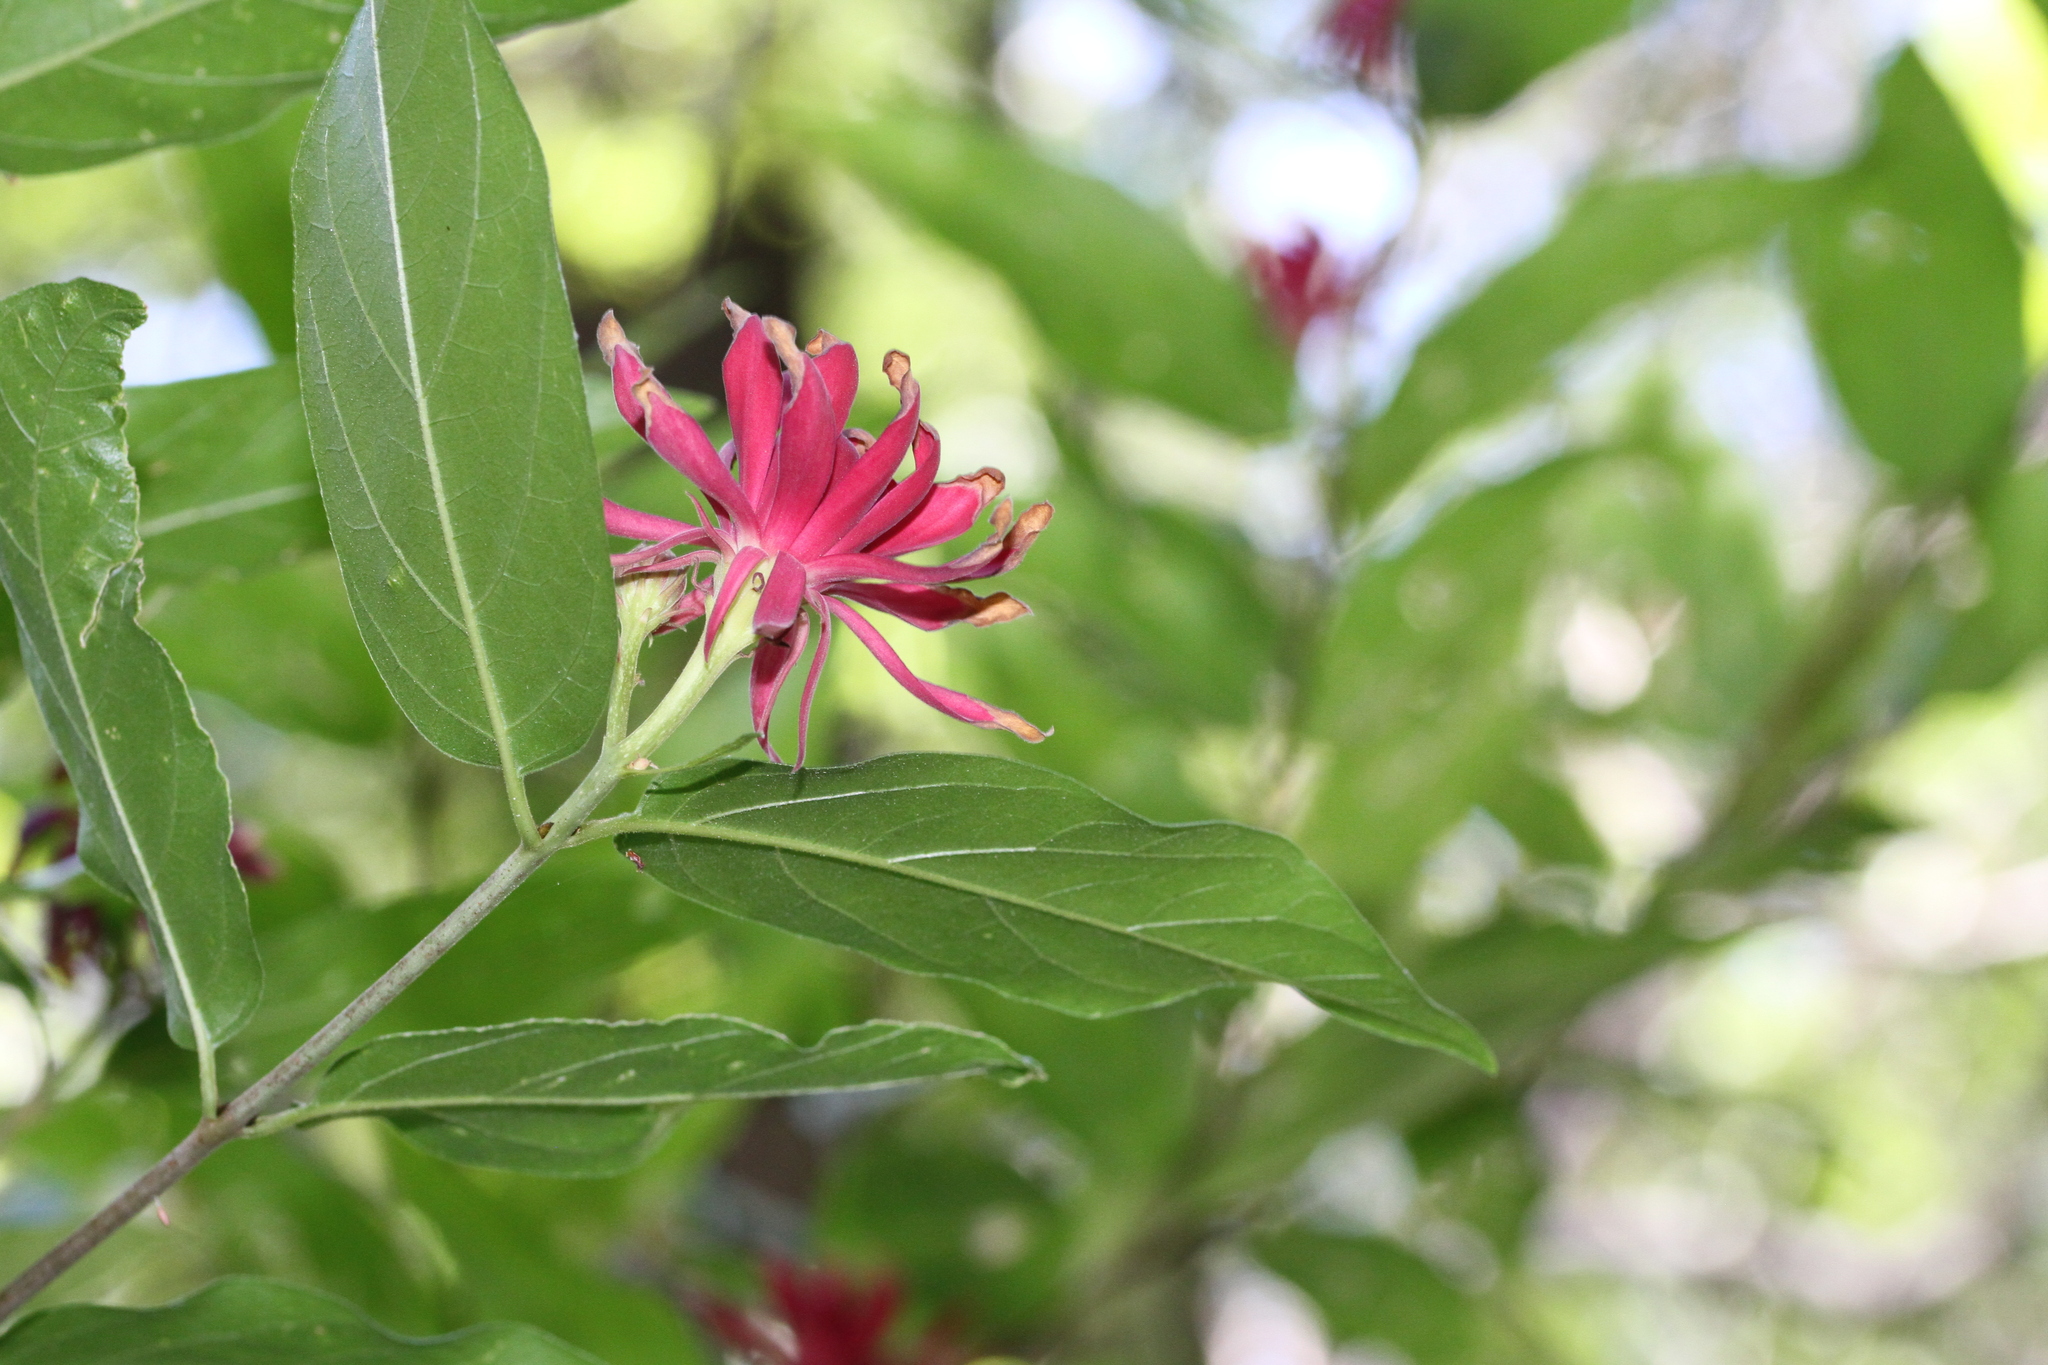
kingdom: Plantae
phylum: Tracheophyta
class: Magnoliopsida
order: Laurales
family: Calycanthaceae
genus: Calycanthus
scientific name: Calycanthus occidentalis
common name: California spicebush
